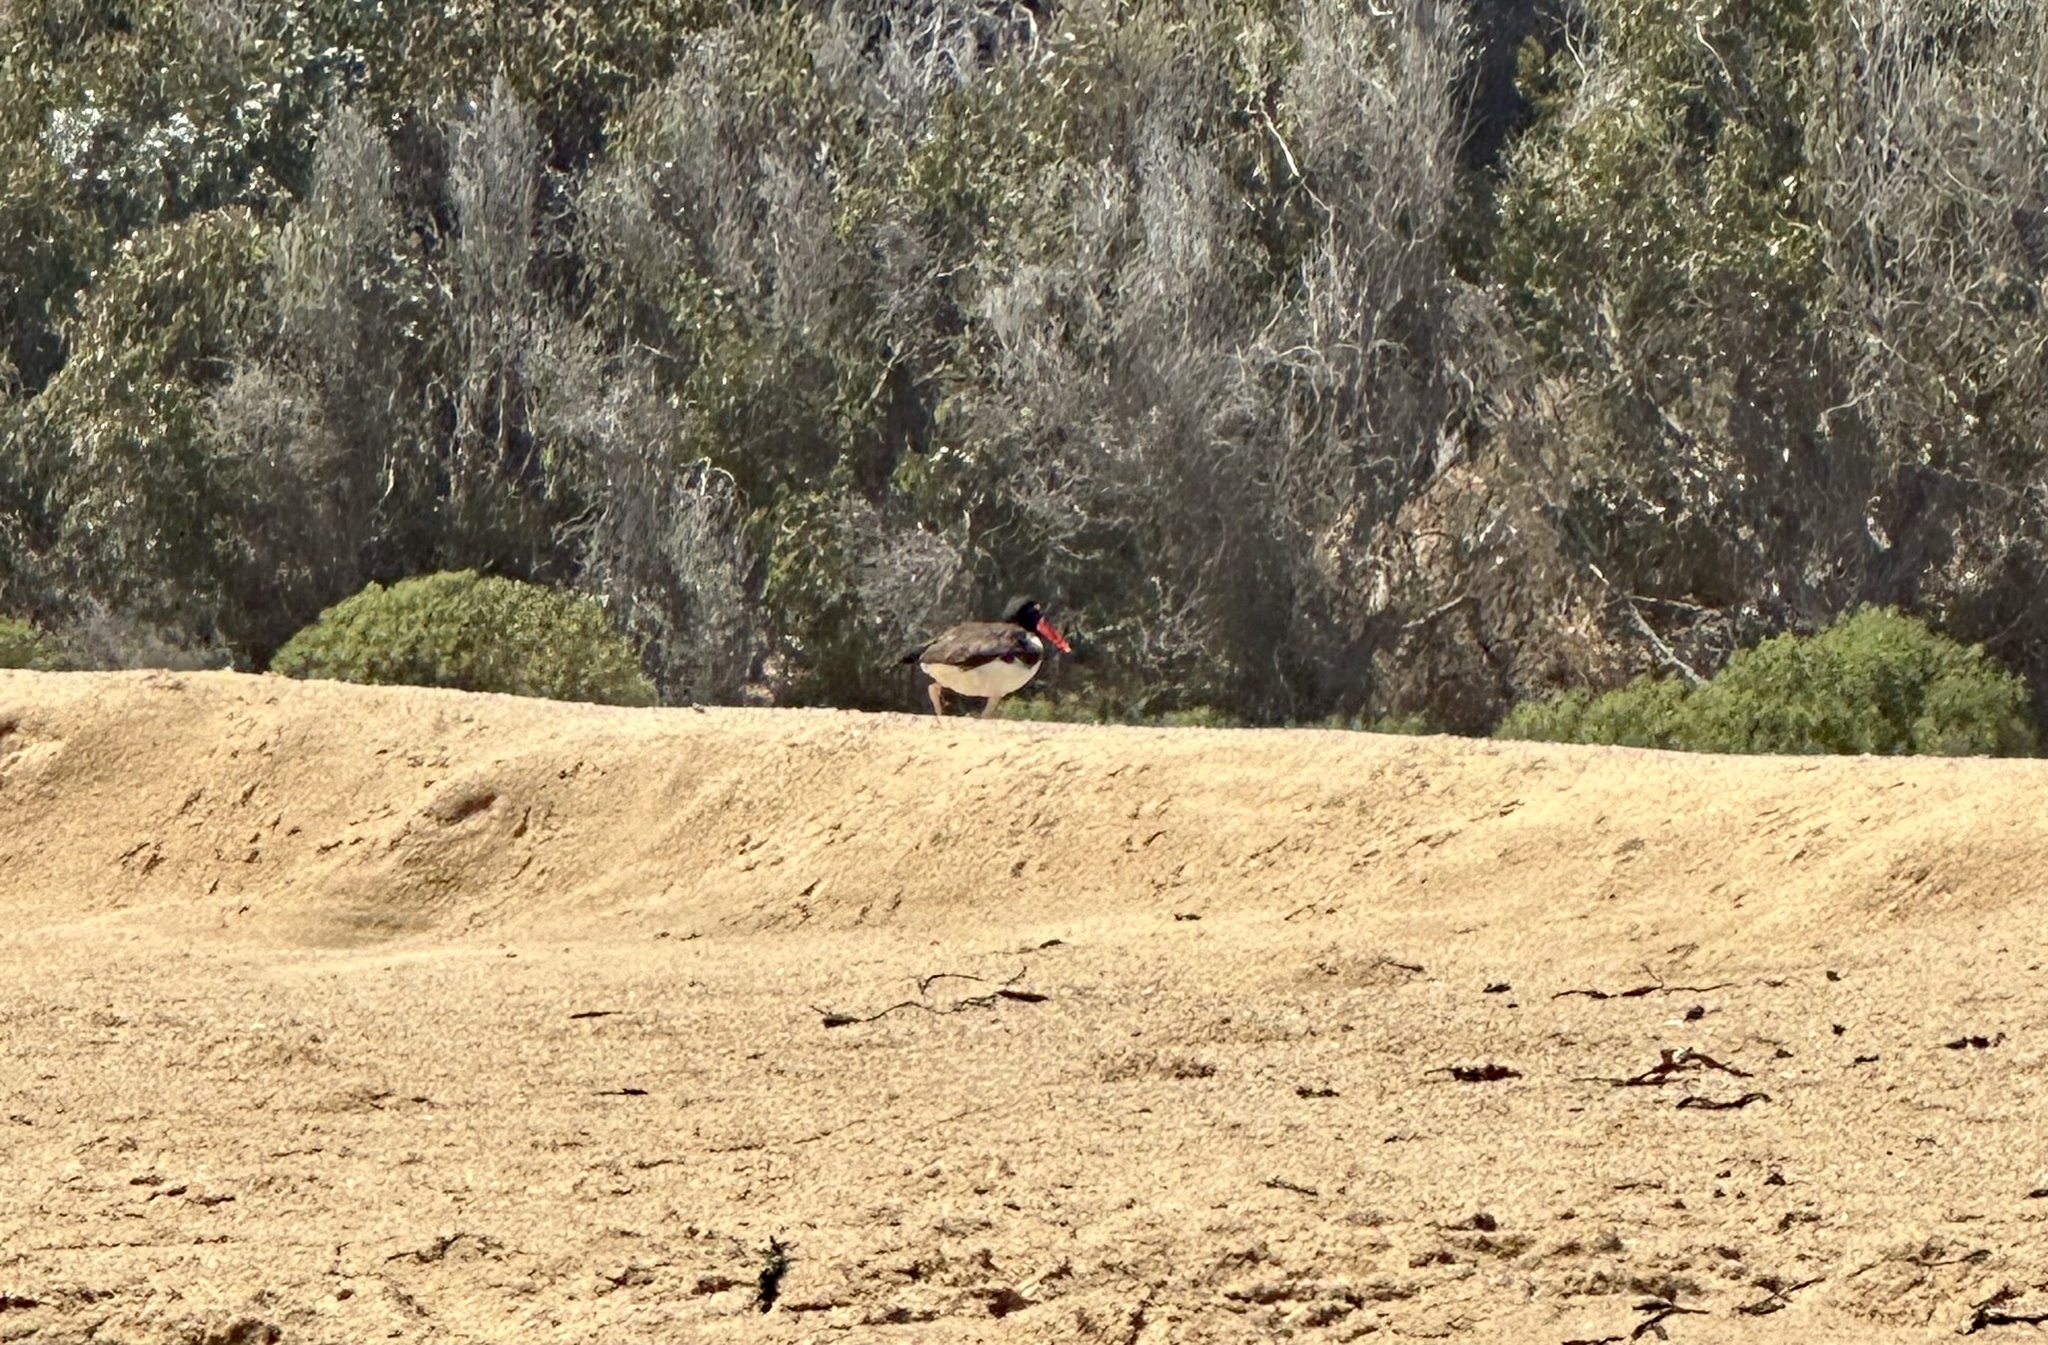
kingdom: Animalia
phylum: Chordata
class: Aves
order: Charadriiformes
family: Haematopodidae
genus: Haematopus
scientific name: Haematopus palliatus
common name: American oystercatcher
